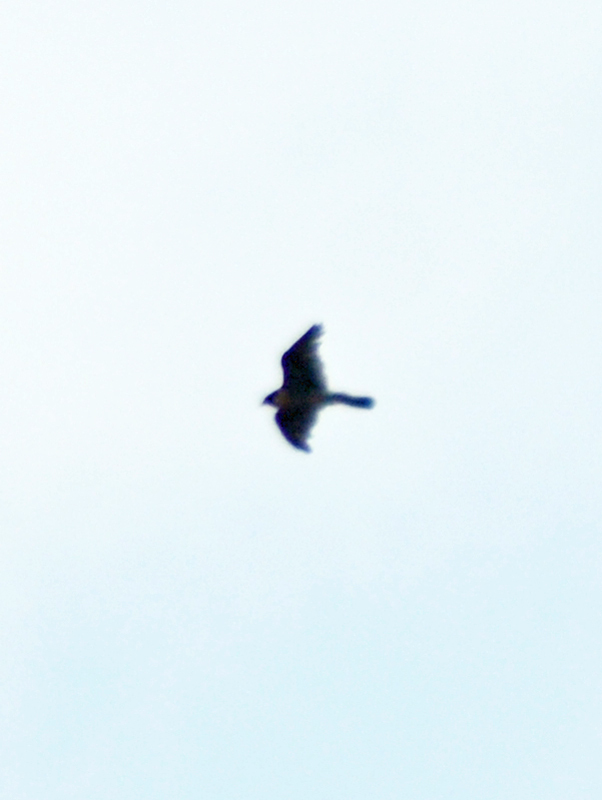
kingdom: Animalia
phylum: Chordata
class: Aves
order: Falconiformes
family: Falconidae
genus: Falco
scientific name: Falco peregrinus
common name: Peregrine falcon
